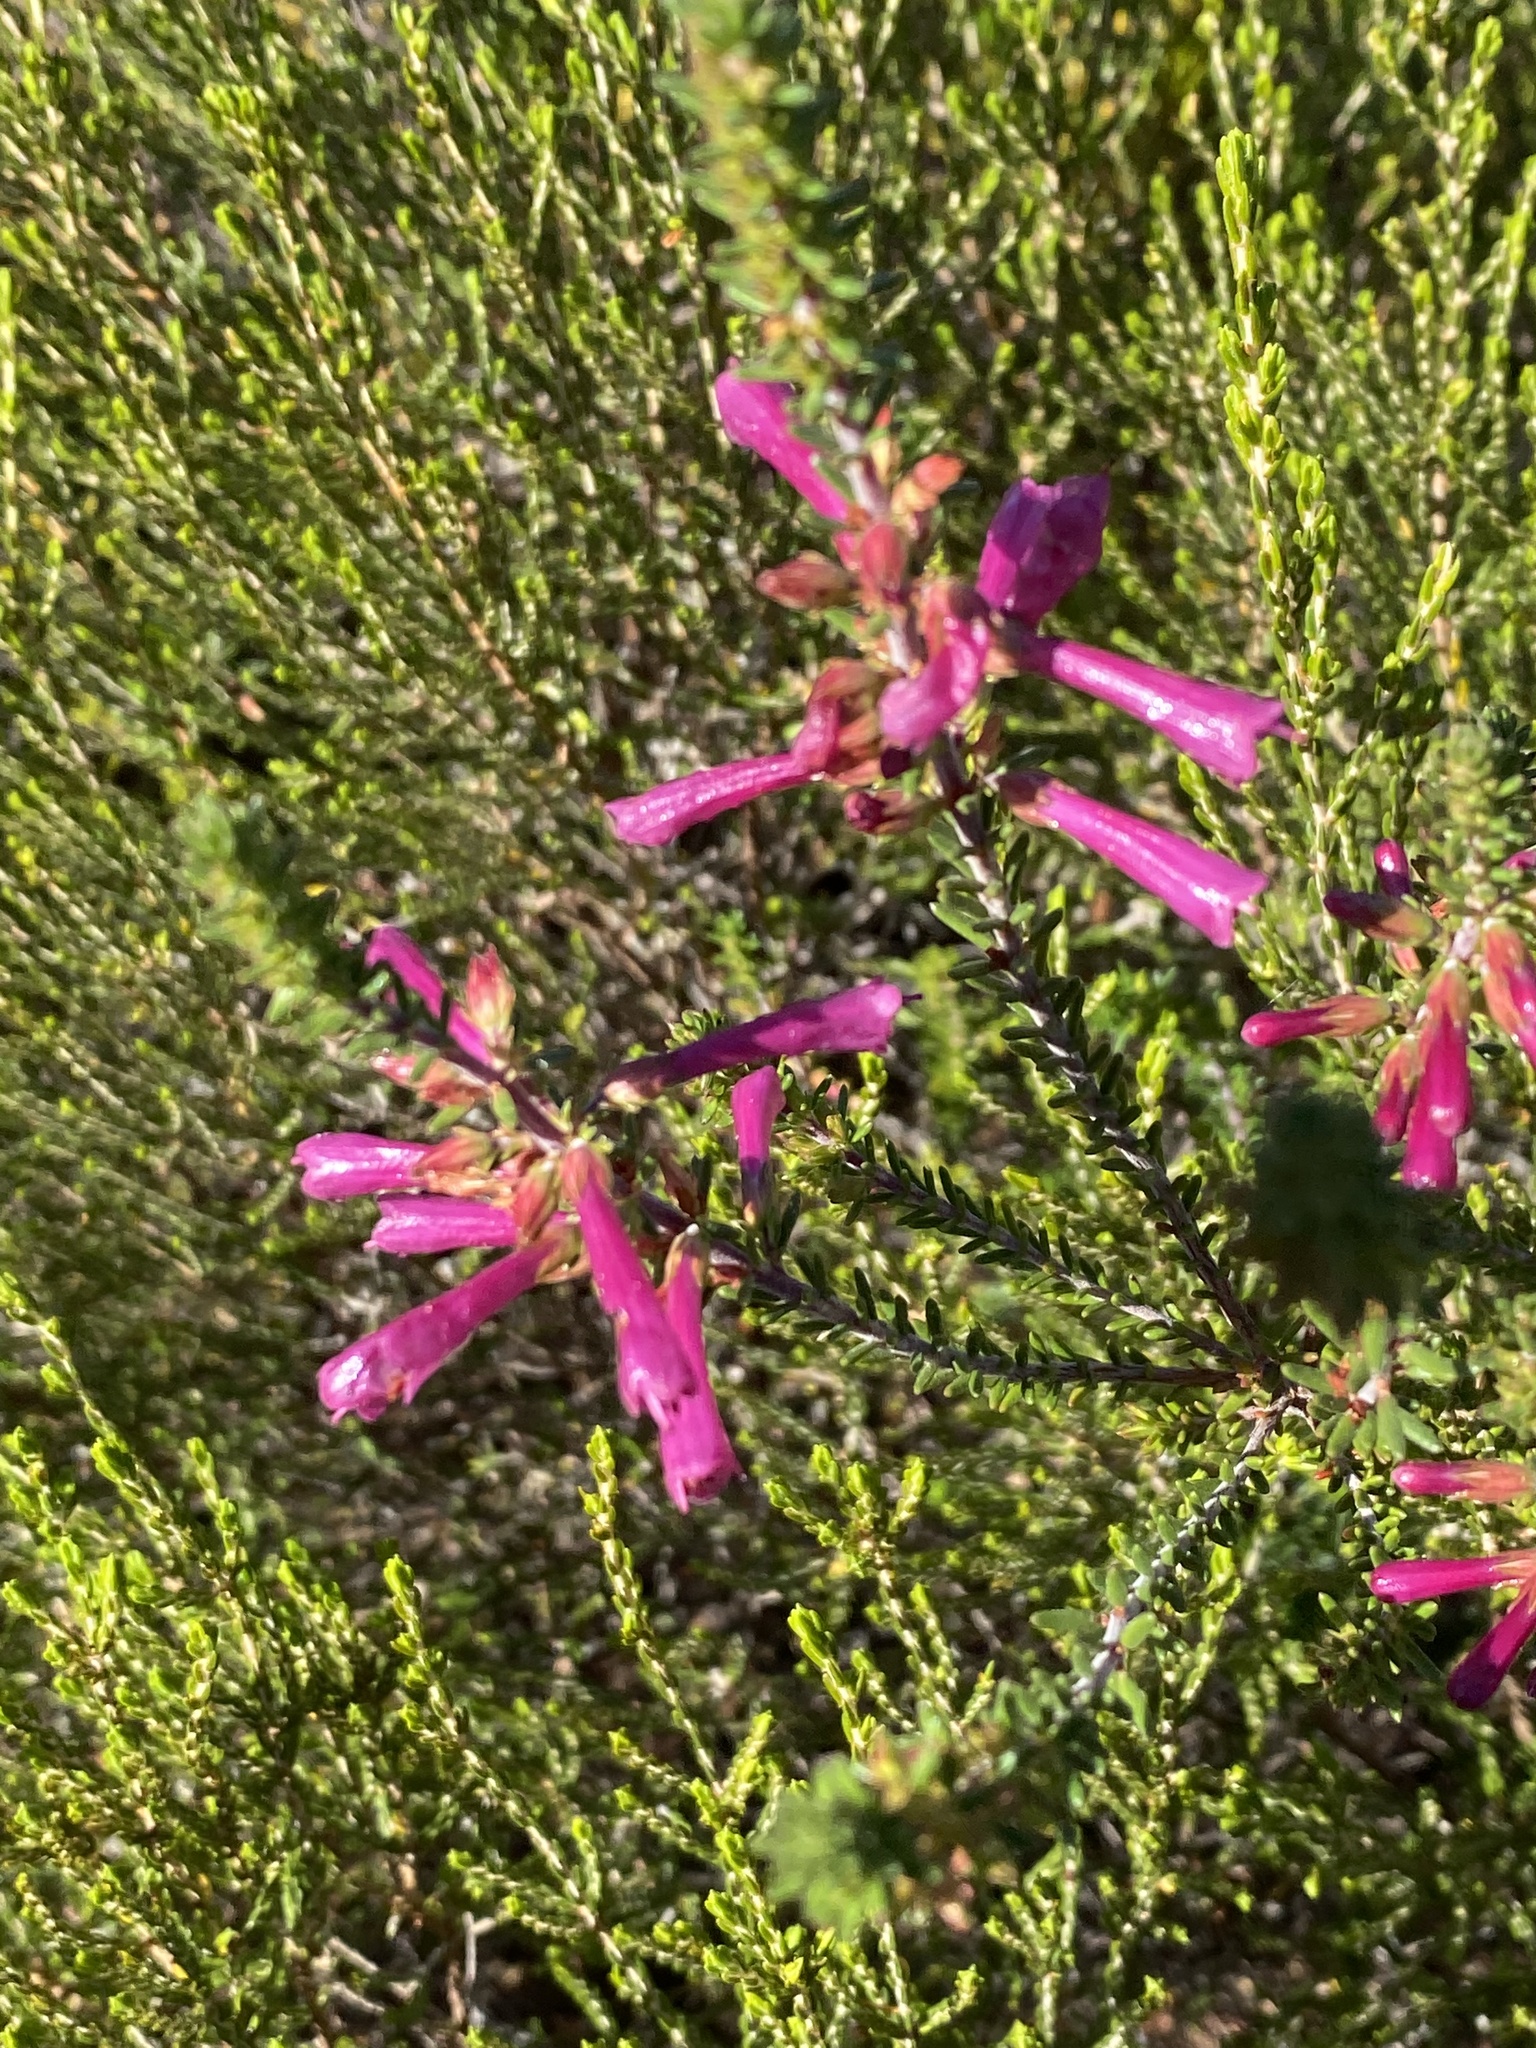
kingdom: Plantae
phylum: Tracheophyta
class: Magnoliopsida
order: Ericales
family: Ericaceae
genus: Erica
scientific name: Erica abietina
